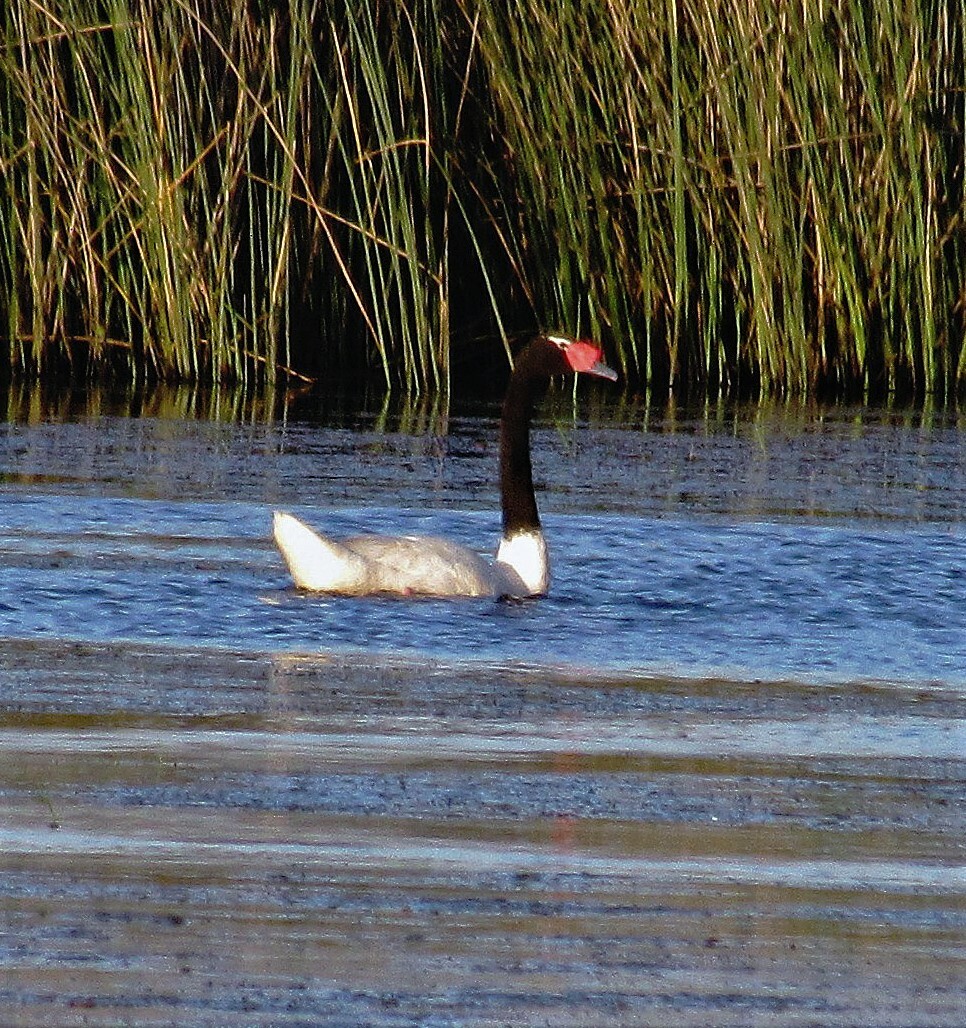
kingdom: Animalia
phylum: Chordata
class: Aves
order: Anseriformes
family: Anatidae
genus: Cygnus
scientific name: Cygnus melancoryphus
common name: Black-necked swan
